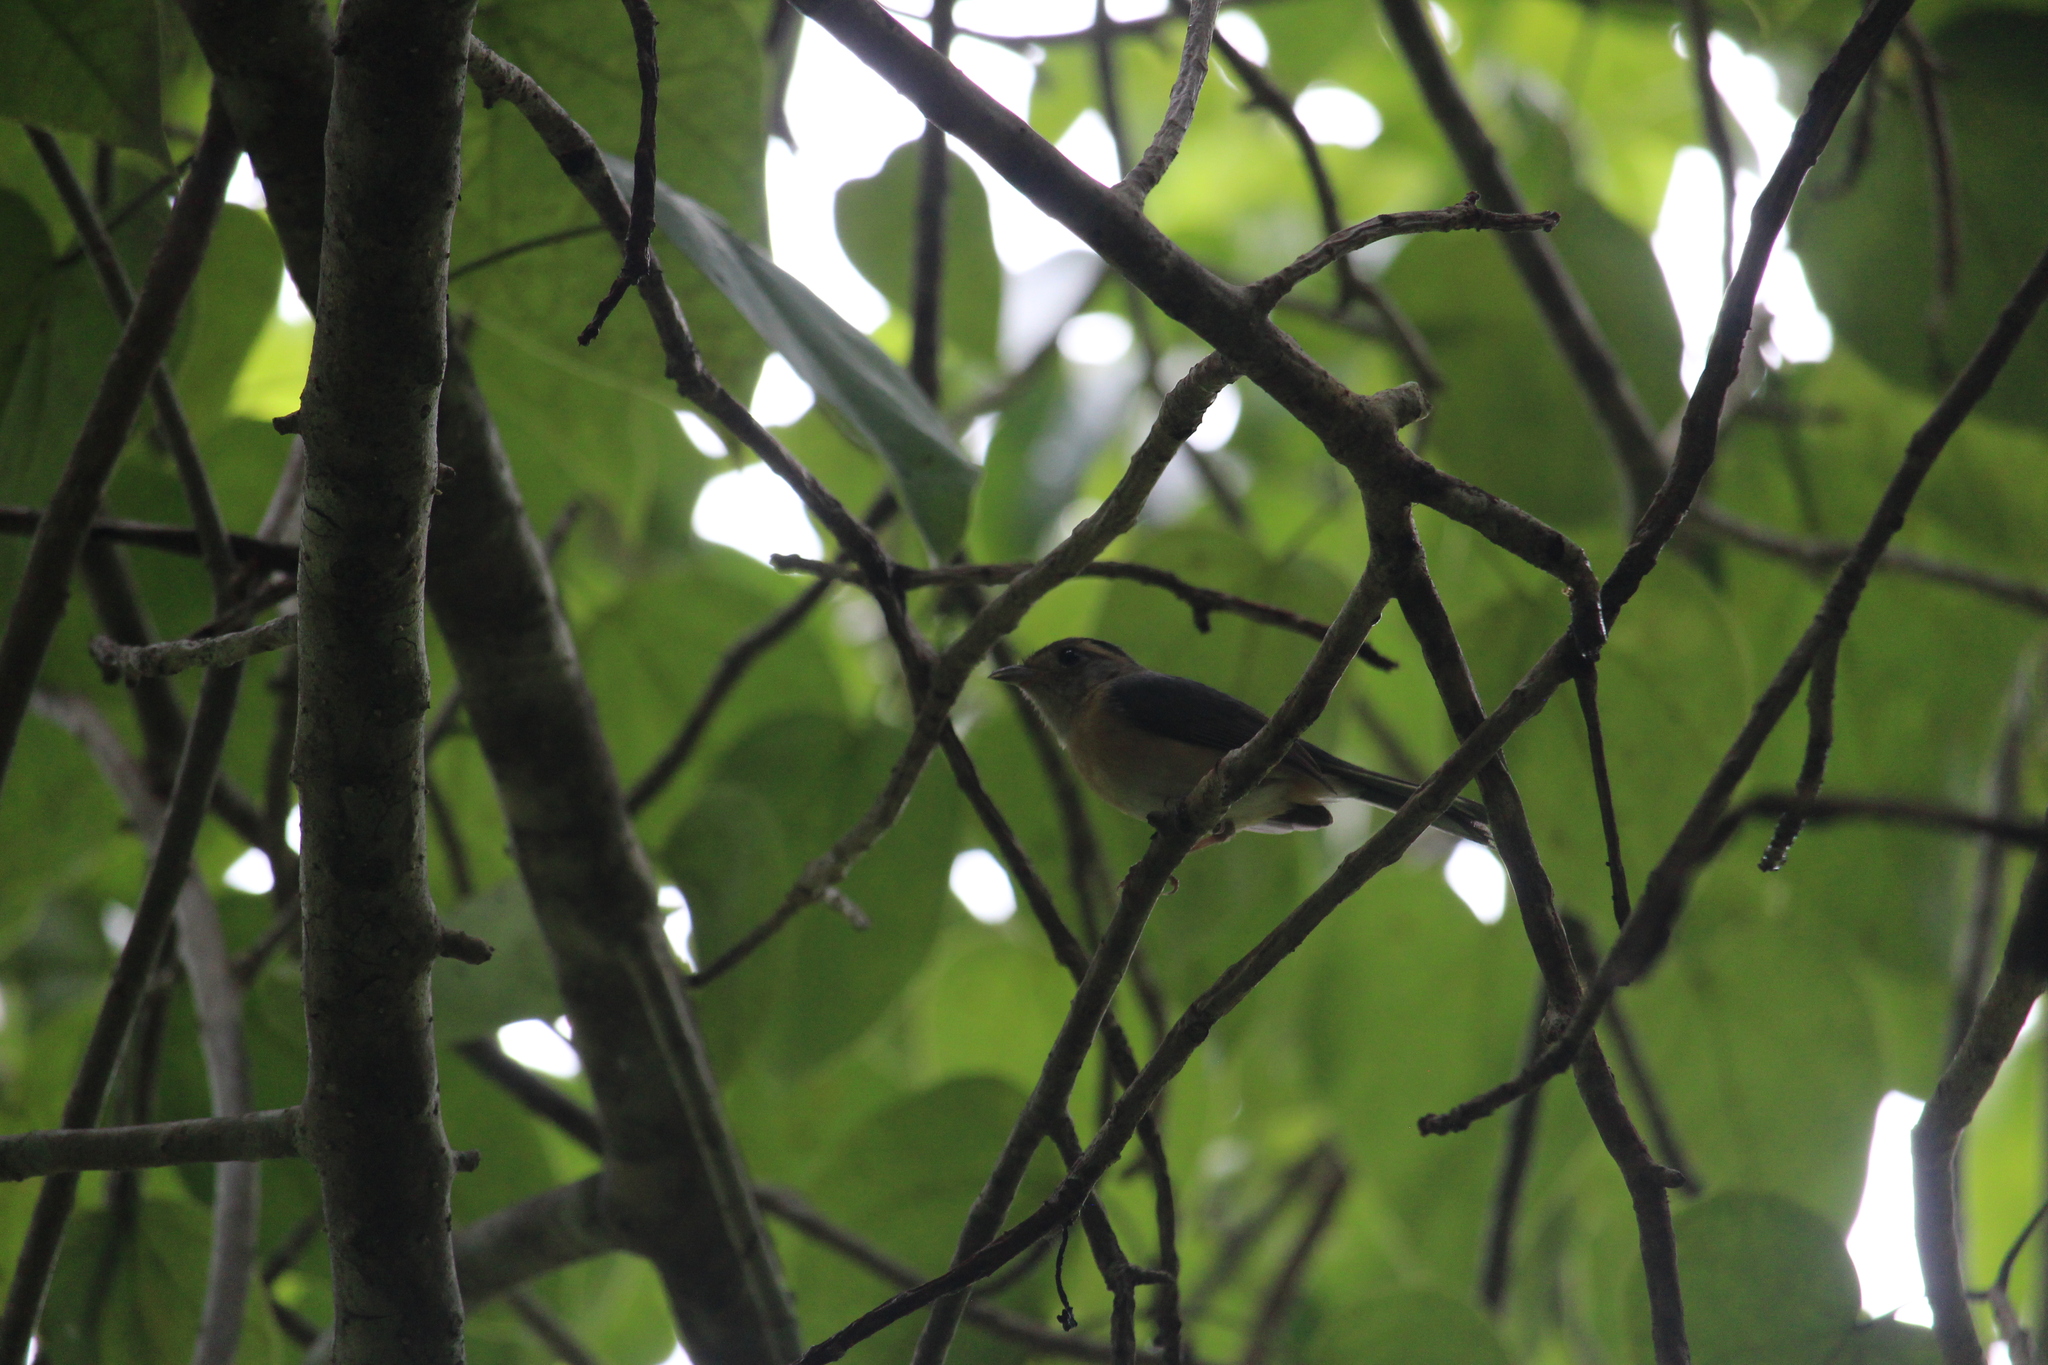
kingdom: Animalia
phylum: Chordata
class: Aves
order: Passeriformes
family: Cardinalidae
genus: Granatellus
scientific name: Granatellus sallaei
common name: Gray-throated chat
